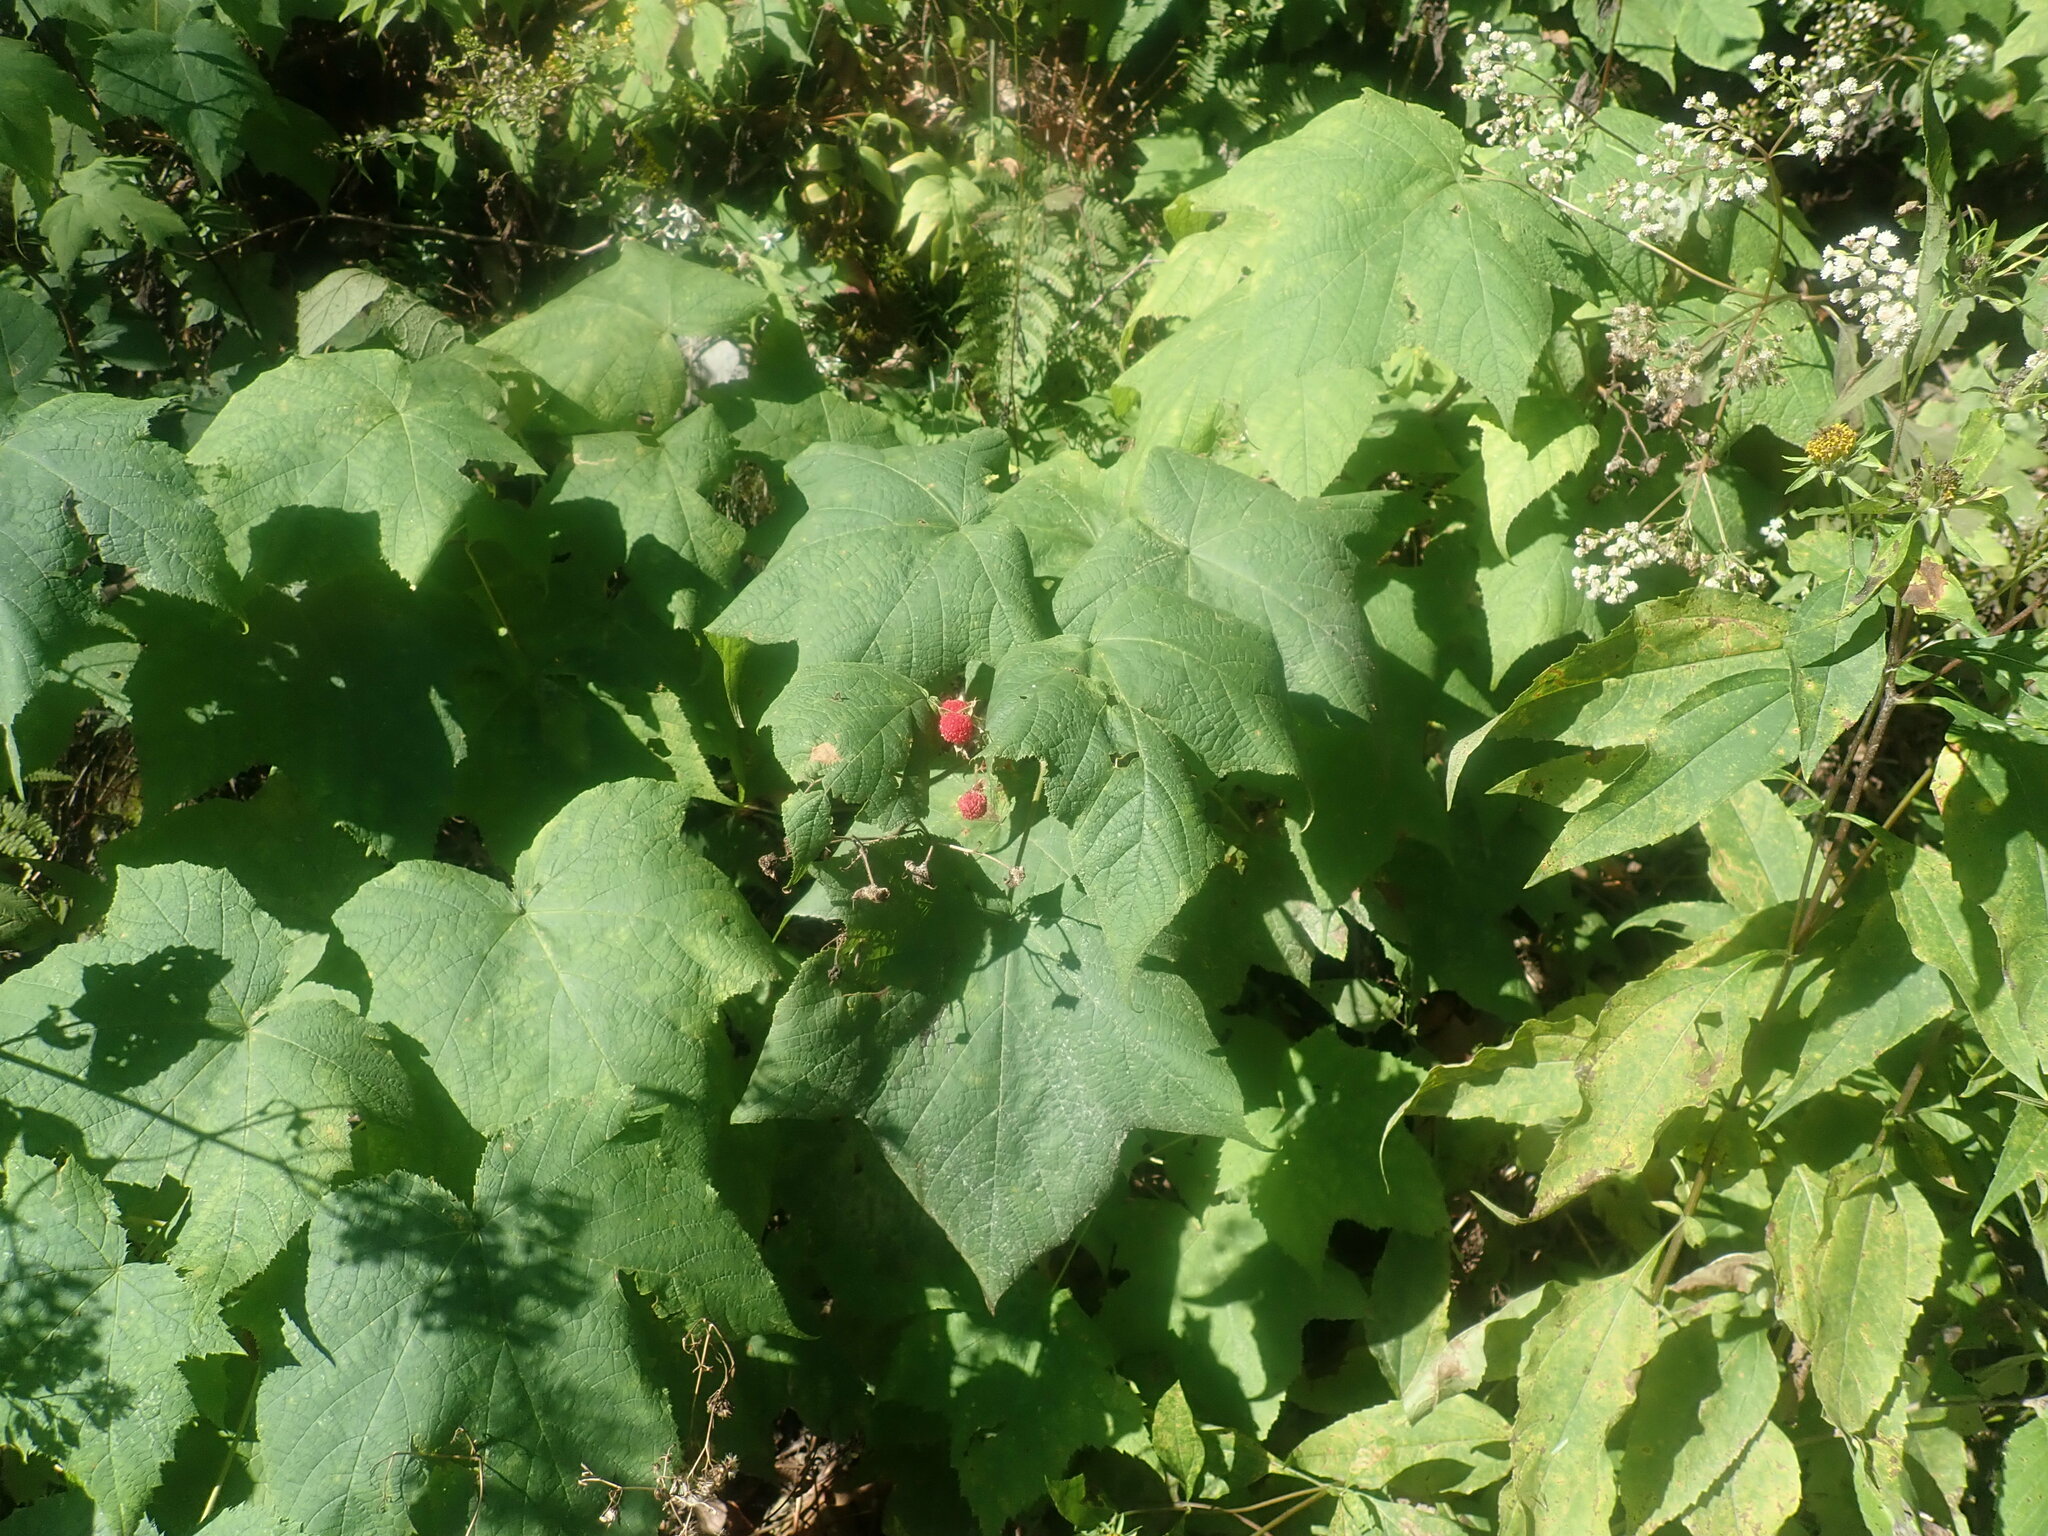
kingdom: Plantae
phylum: Tracheophyta
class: Magnoliopsida
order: Rosales
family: Rosaceae
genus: Rubus
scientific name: Rubus odoratus
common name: Purple-flowered raspberry
